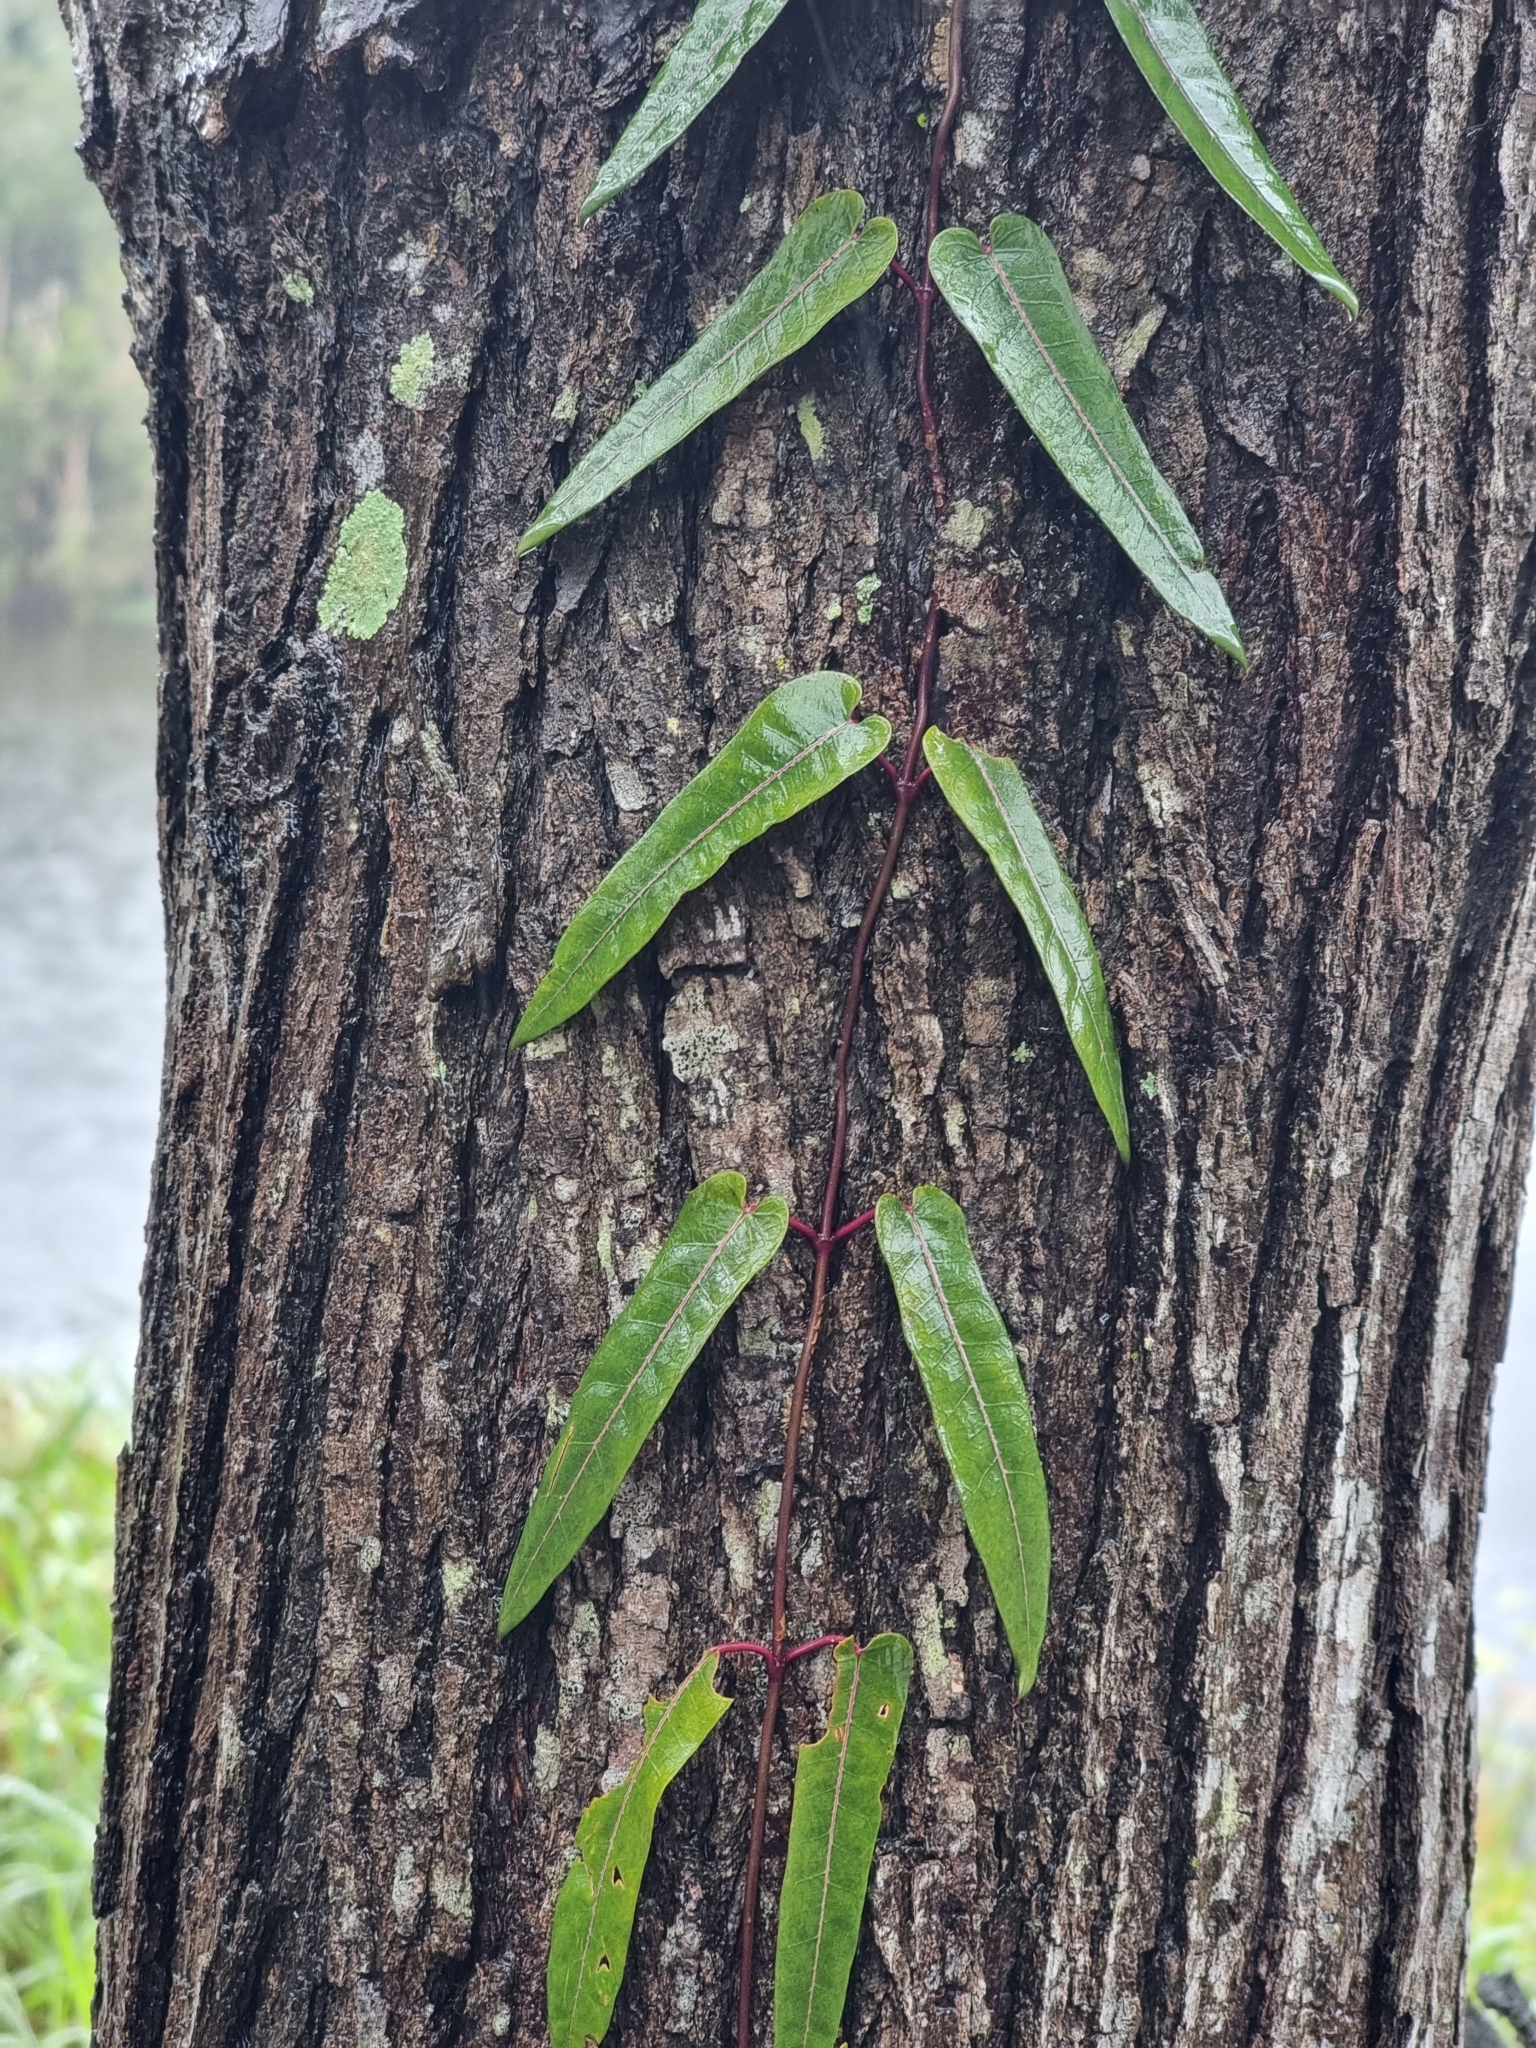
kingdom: Plantae
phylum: Tracheophyta
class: Magnoliopsida
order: Gentianales
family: Apocynaceae
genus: Parsonsia
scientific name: Parsonsia straminea
